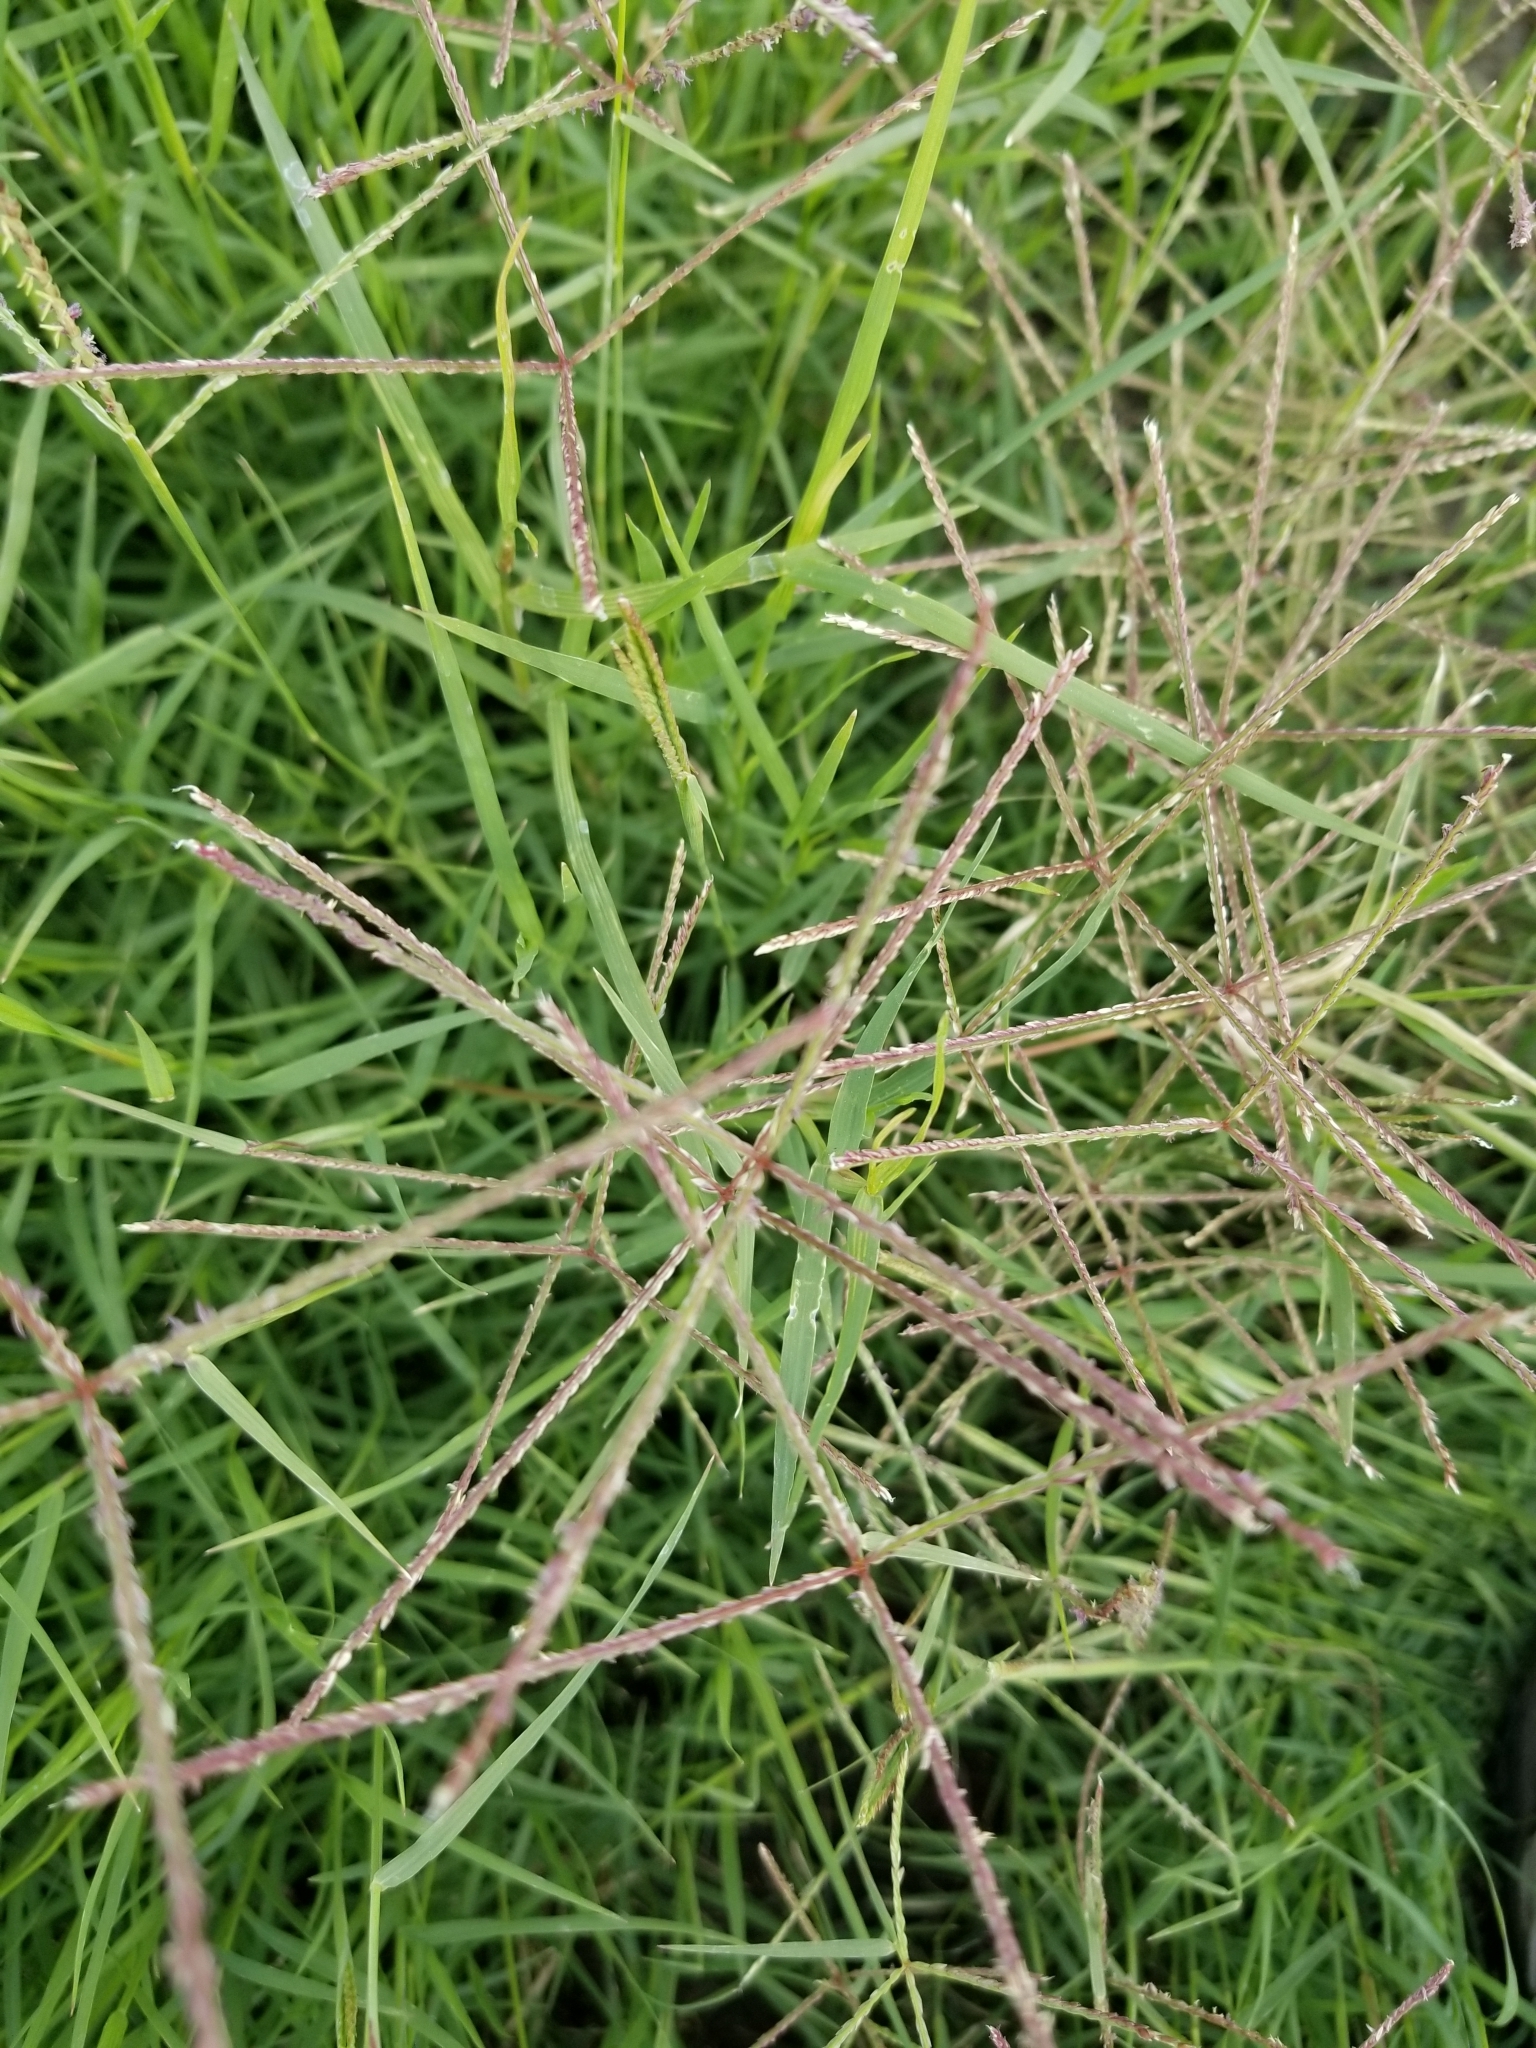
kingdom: Plantae
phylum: Tracheophyta
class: Liliopsida
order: Poales
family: Poaceae
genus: Cynodon
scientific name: Cynodon dactylon
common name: Bermuda grass
